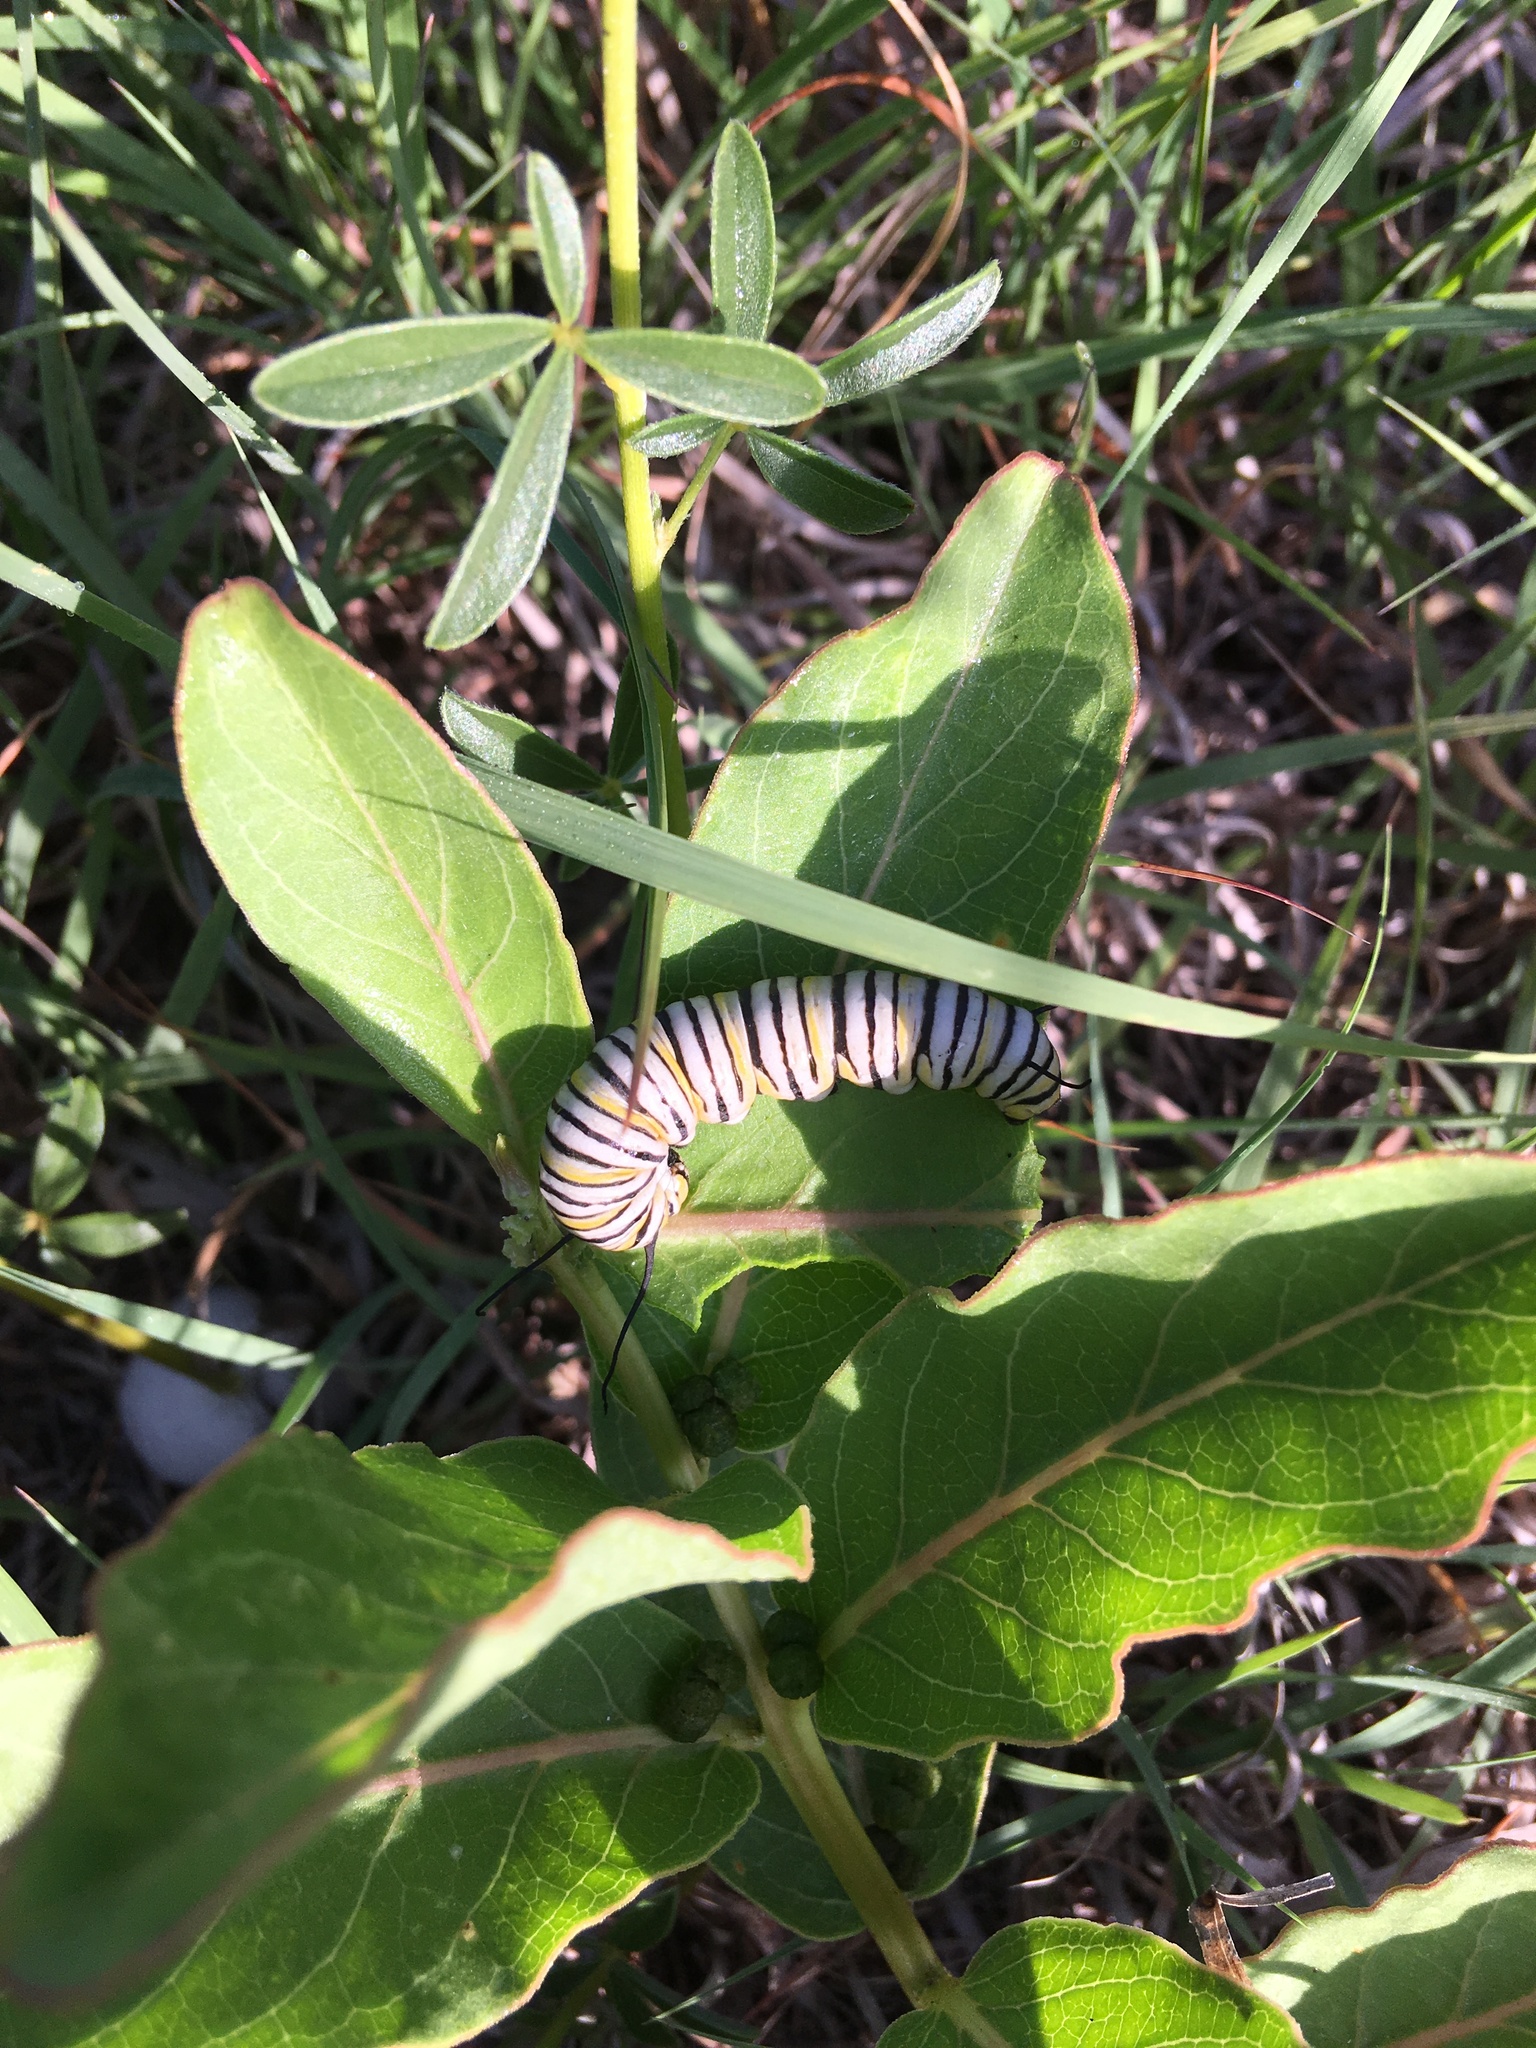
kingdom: Animalia
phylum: Arthropoda
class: Insecta
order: Lepidoptera
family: Nymphalidae
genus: Danaus
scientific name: Danaus plexippus
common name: Monarch
